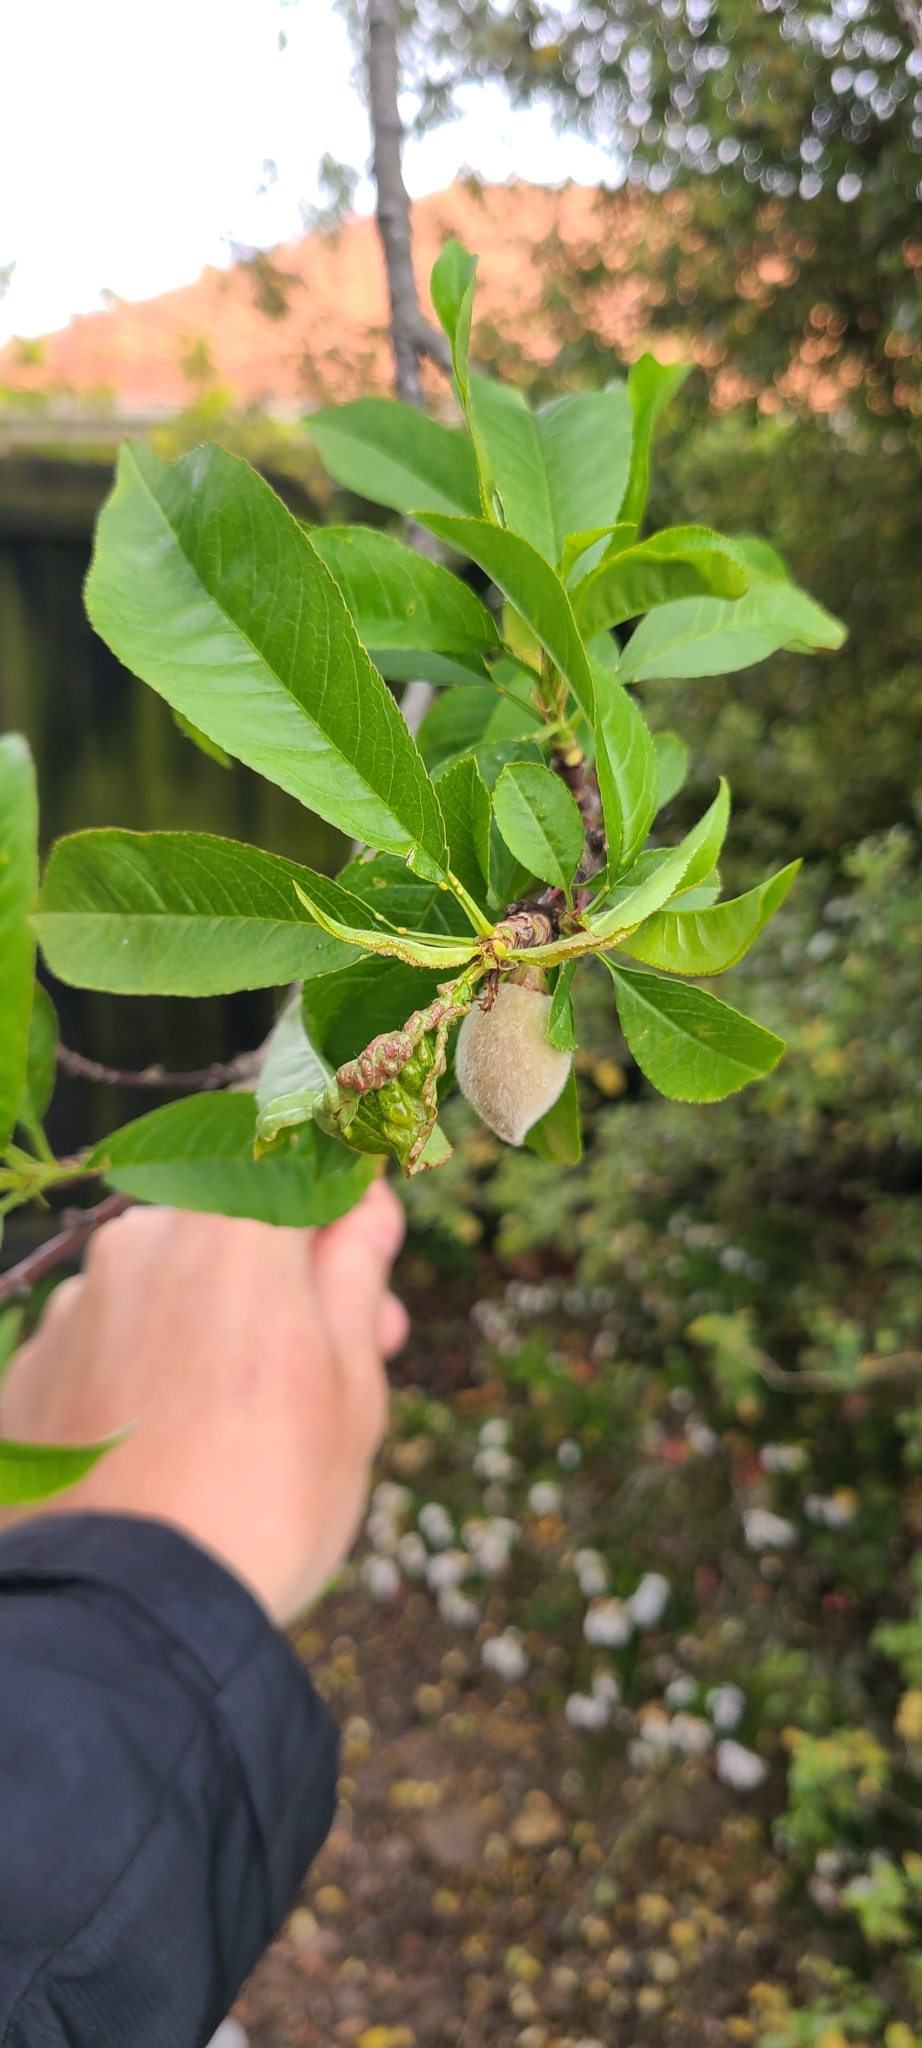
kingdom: Plantae
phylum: Tracheophyta
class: Magnoliopsida
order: Rosales
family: Rosaceae
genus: Prunus
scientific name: Prunus persica
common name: Peach
